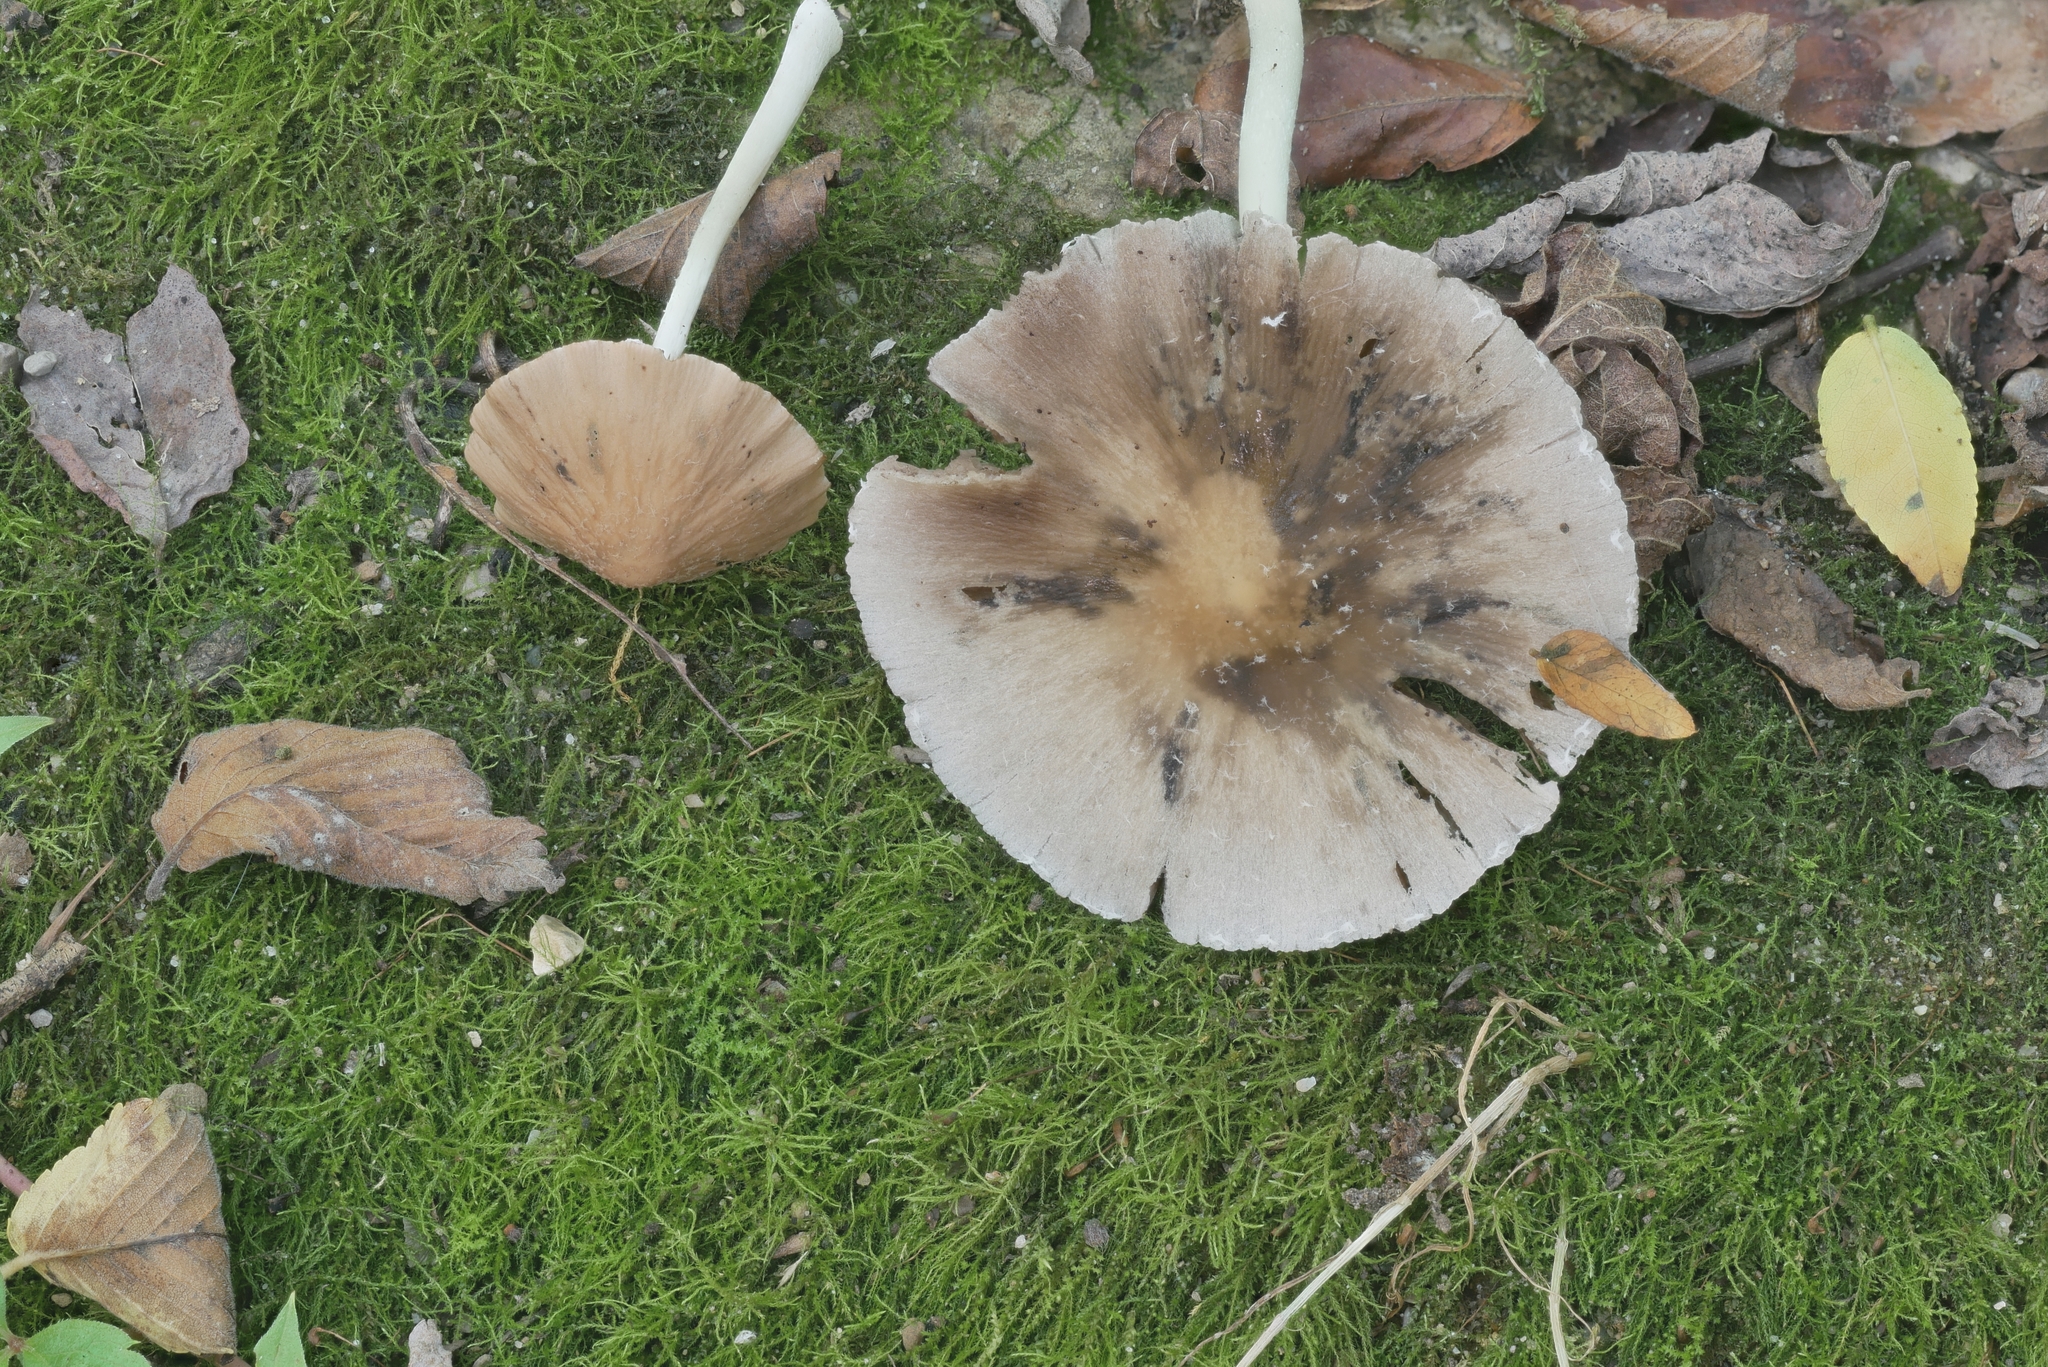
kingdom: Fungi
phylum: Basidiomycota
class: Agaricomycetes
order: Agaricales
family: Psathyrellaceae
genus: Candolleomyces
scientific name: Candolleomyces candolleanus
